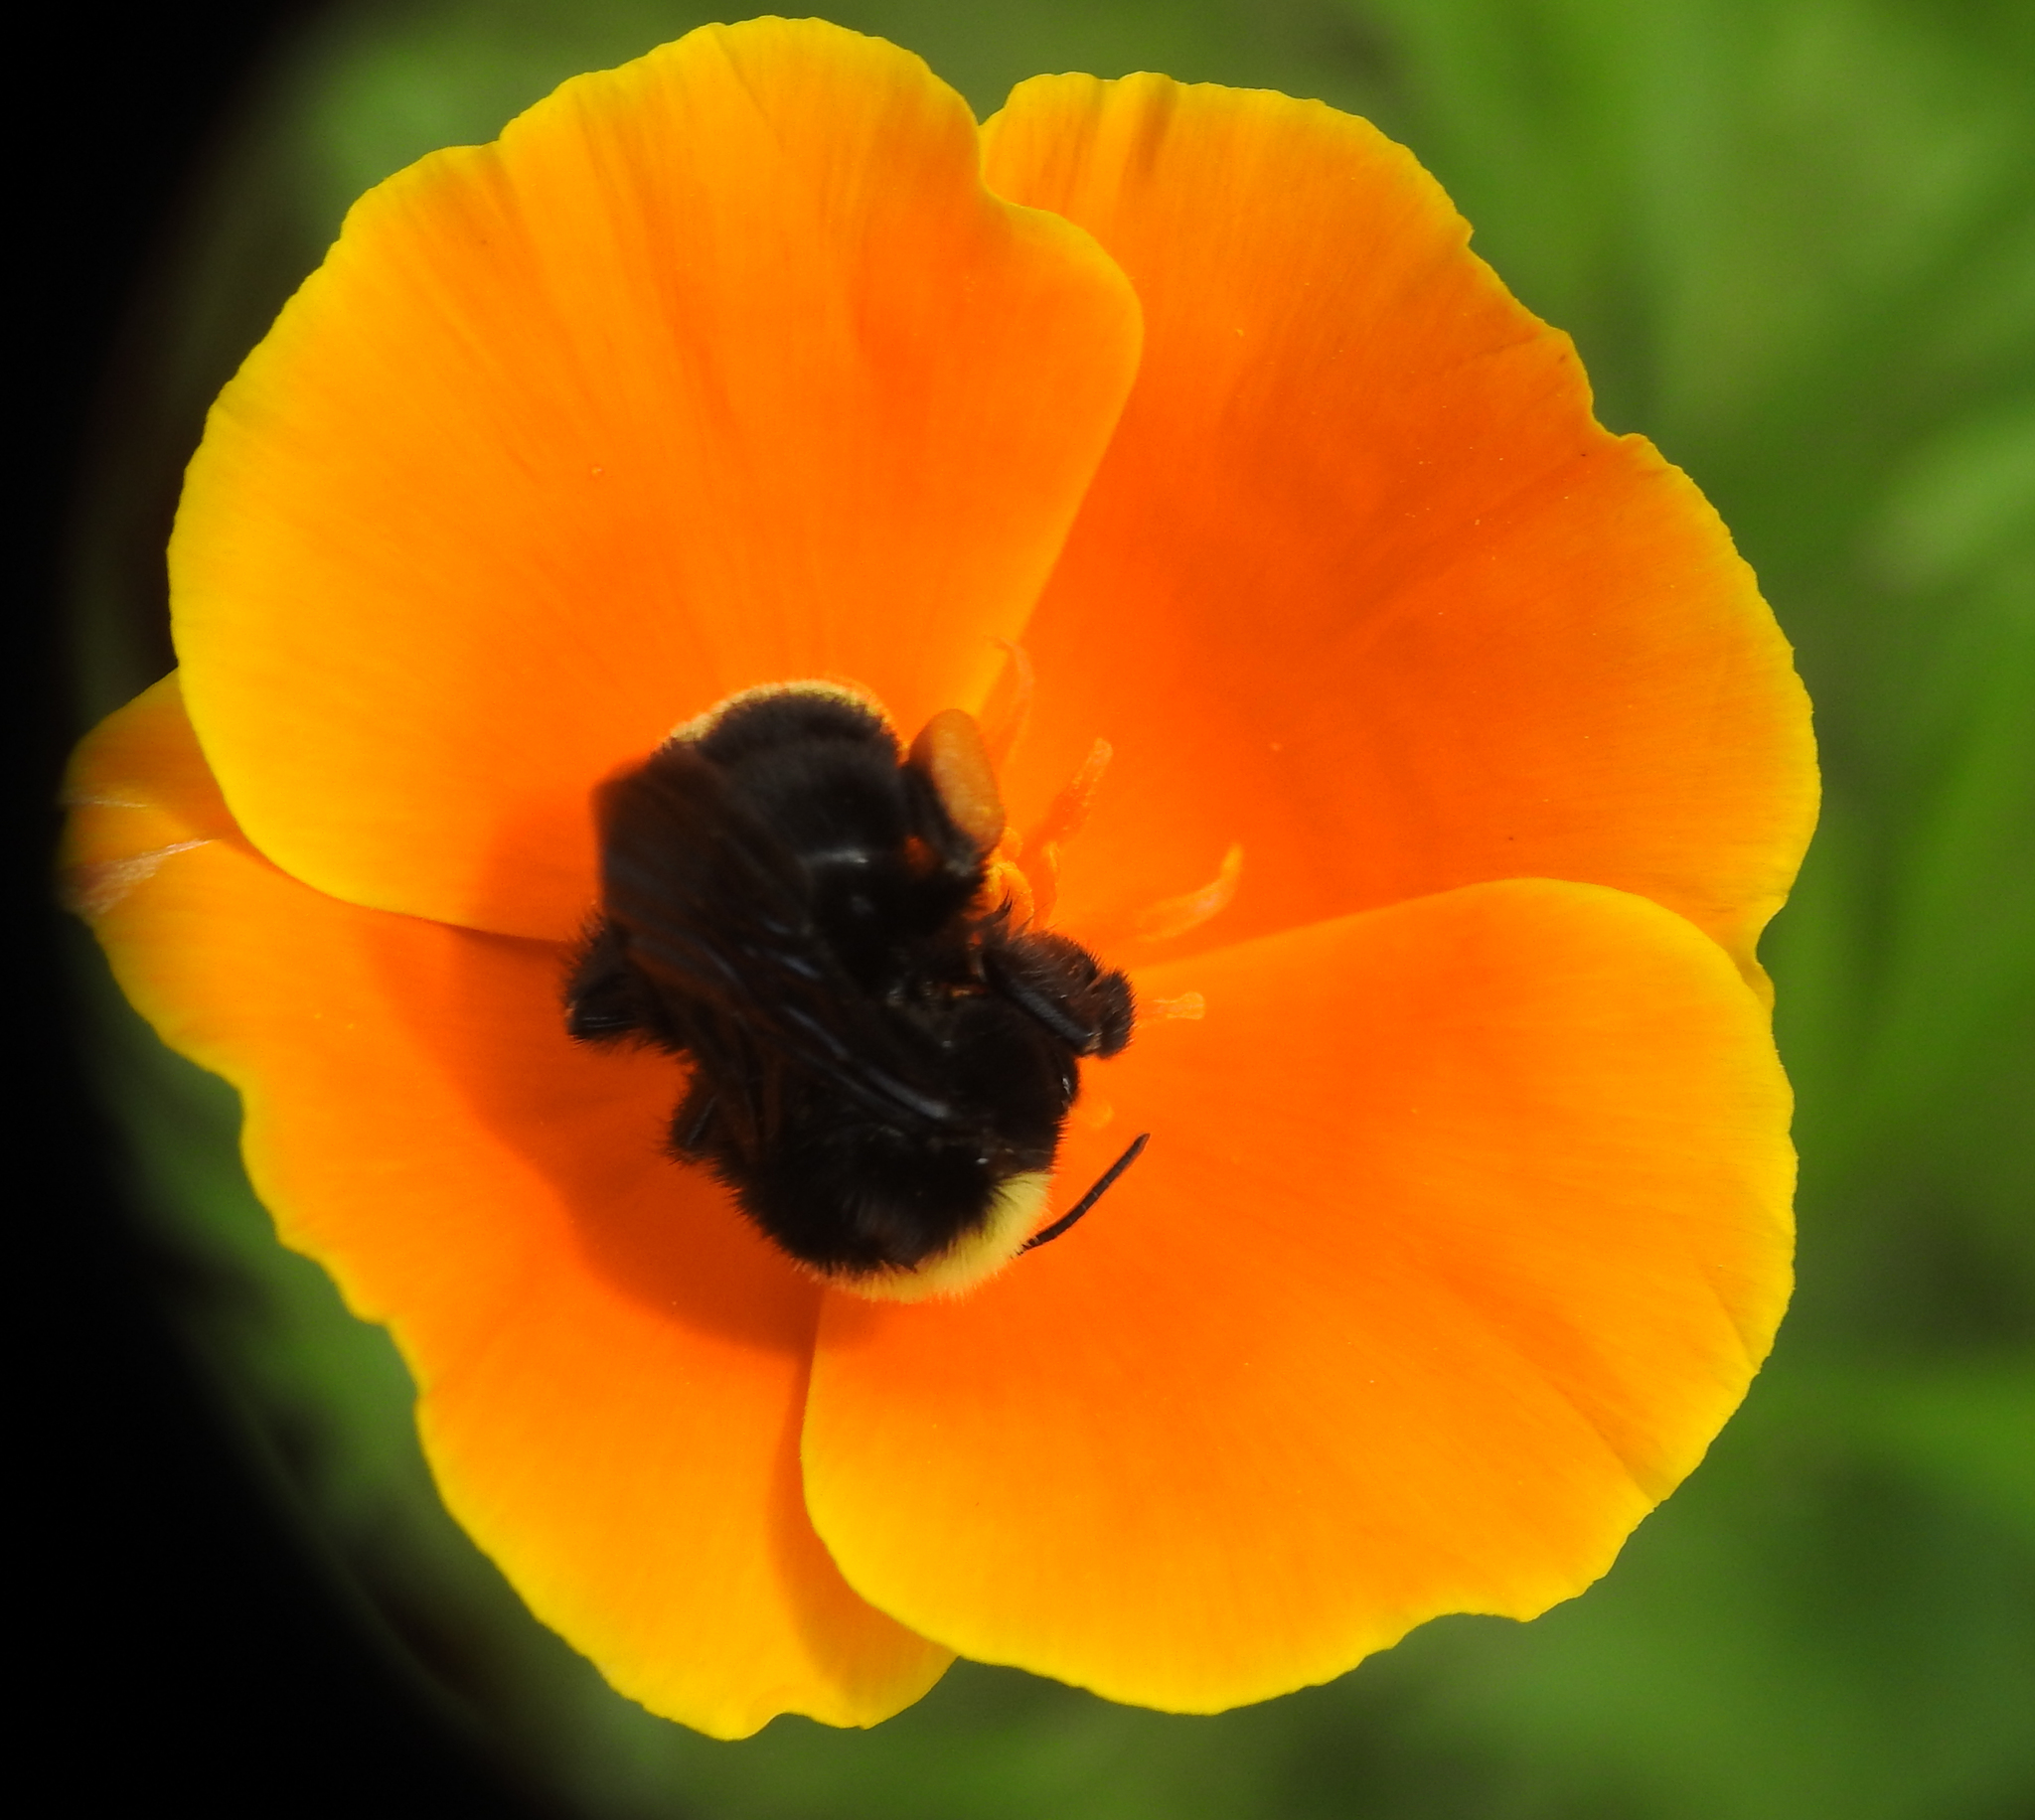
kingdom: Animalia
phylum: Arthropoda
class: Insecta
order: Hymenoptera
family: Apidae
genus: Bombus
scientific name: Bombus vosnesenskii
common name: Vosnesensky bumble bee
